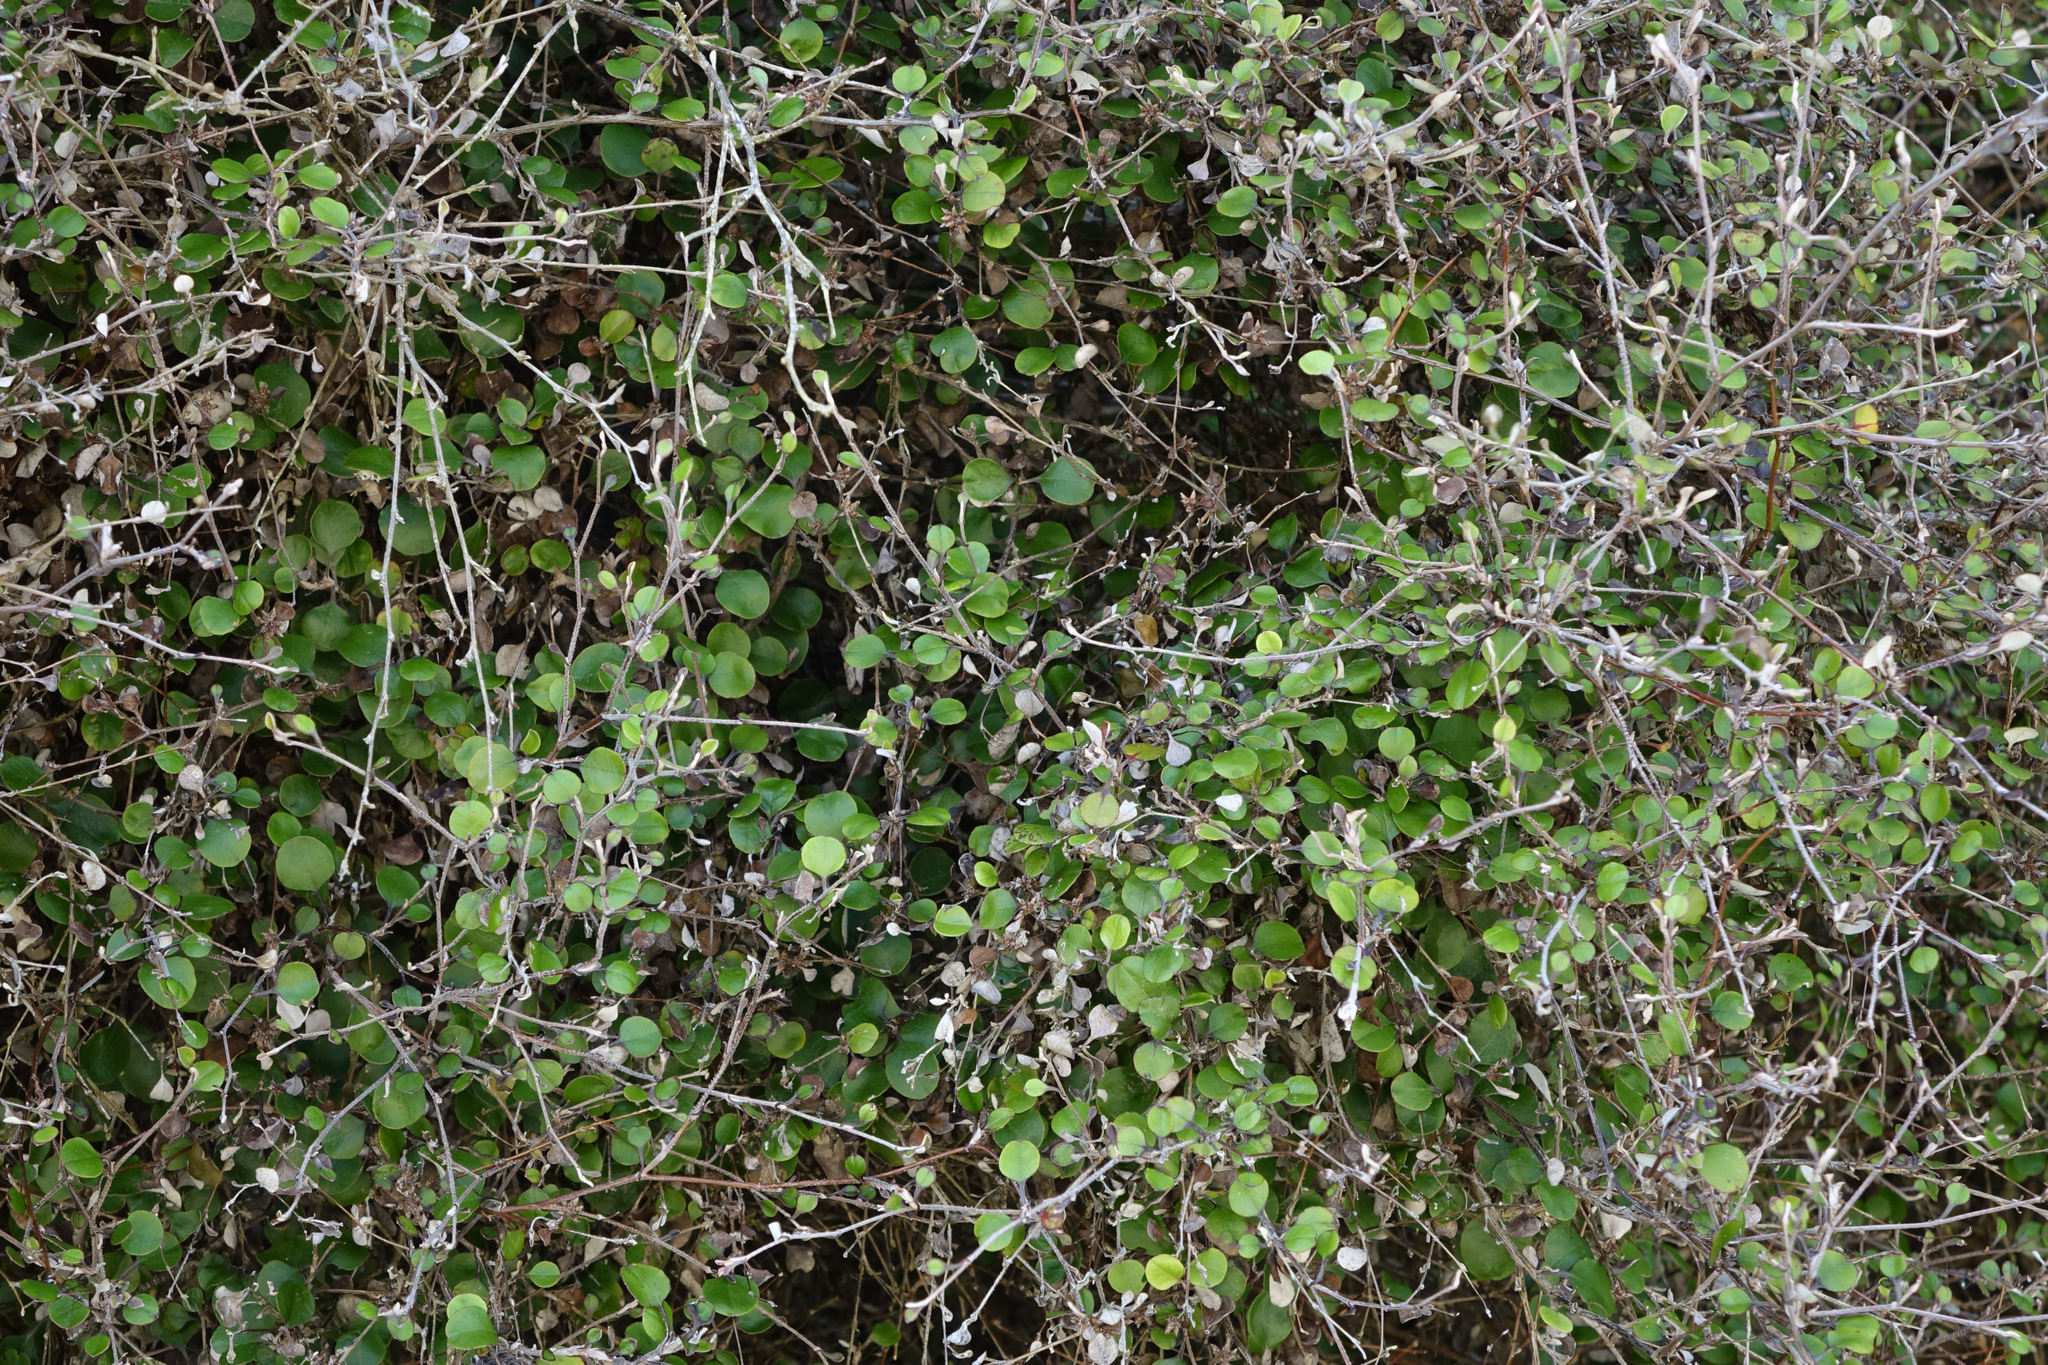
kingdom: Plantae
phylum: Tracheophyta
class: Magnoliopsida
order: Asterales
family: Asteraceae
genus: Ozothamnus
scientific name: Ozothamnus glomeratus
